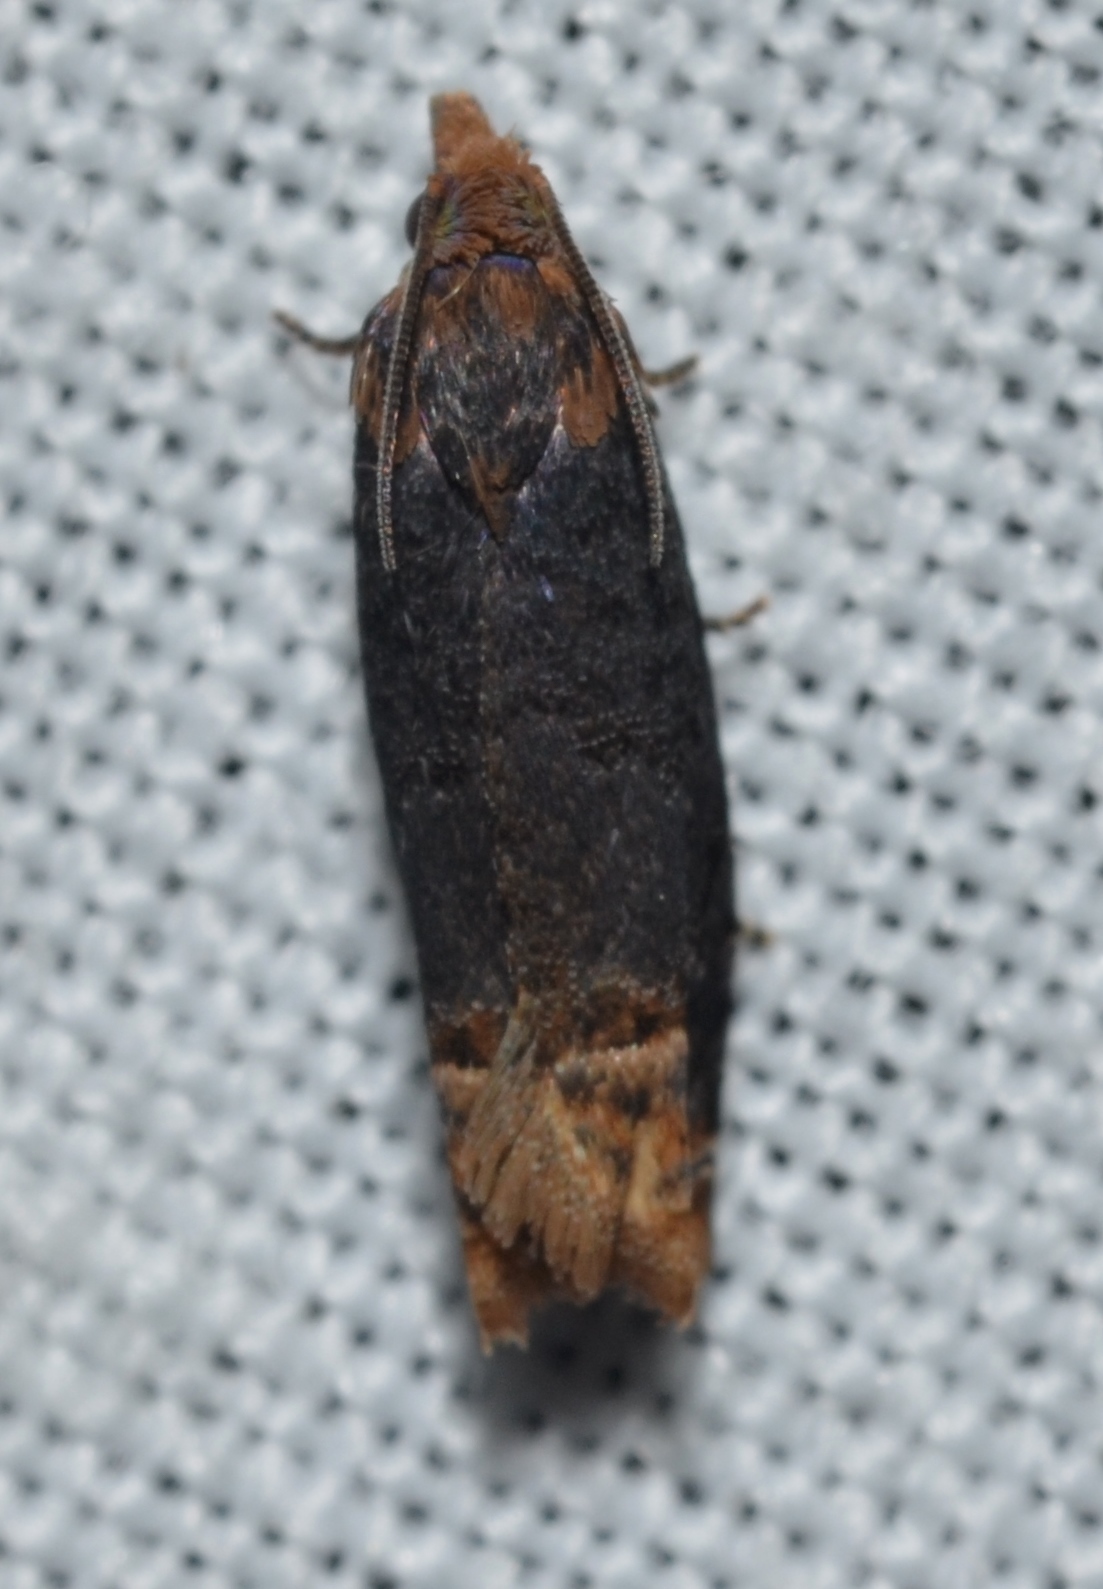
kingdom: Animalia
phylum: Arthropoda
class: Insecta
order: Lepidoptera
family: Tortricidae
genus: Eucosma
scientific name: Eucosma ochroterminana
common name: Buff-tipped eucosma moth
